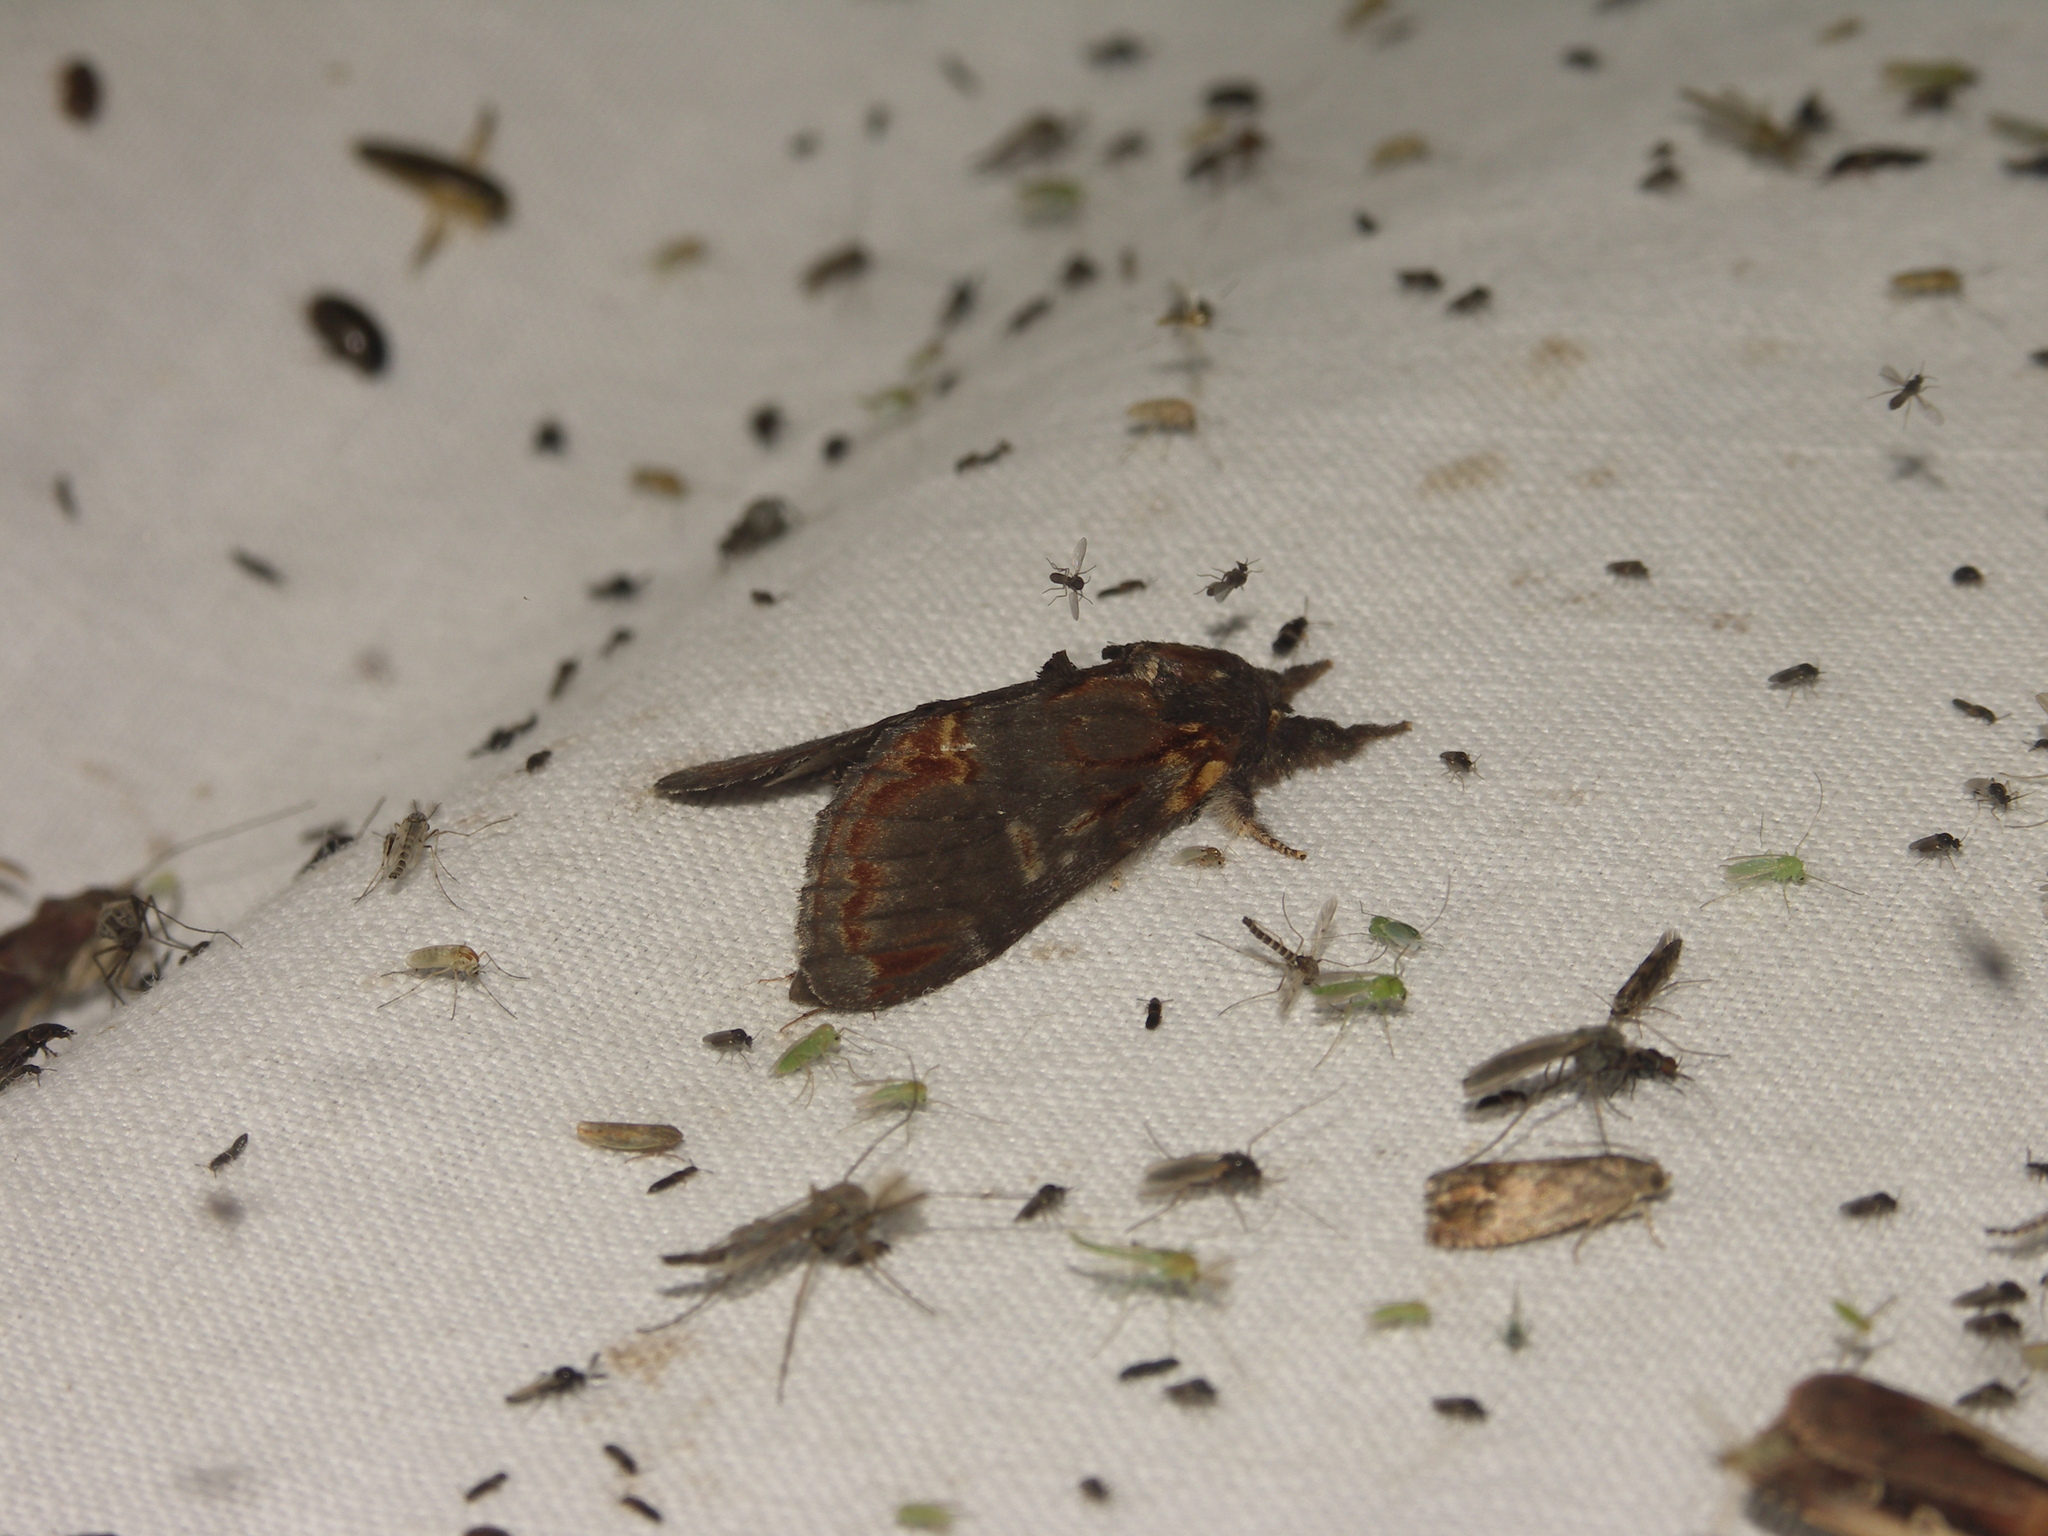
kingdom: Animalia
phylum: Arthropoda
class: Insecta
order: Lepidoptera
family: Notodontidae
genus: Notodonta
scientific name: Notodonta dromedarius
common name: Iron prominent
